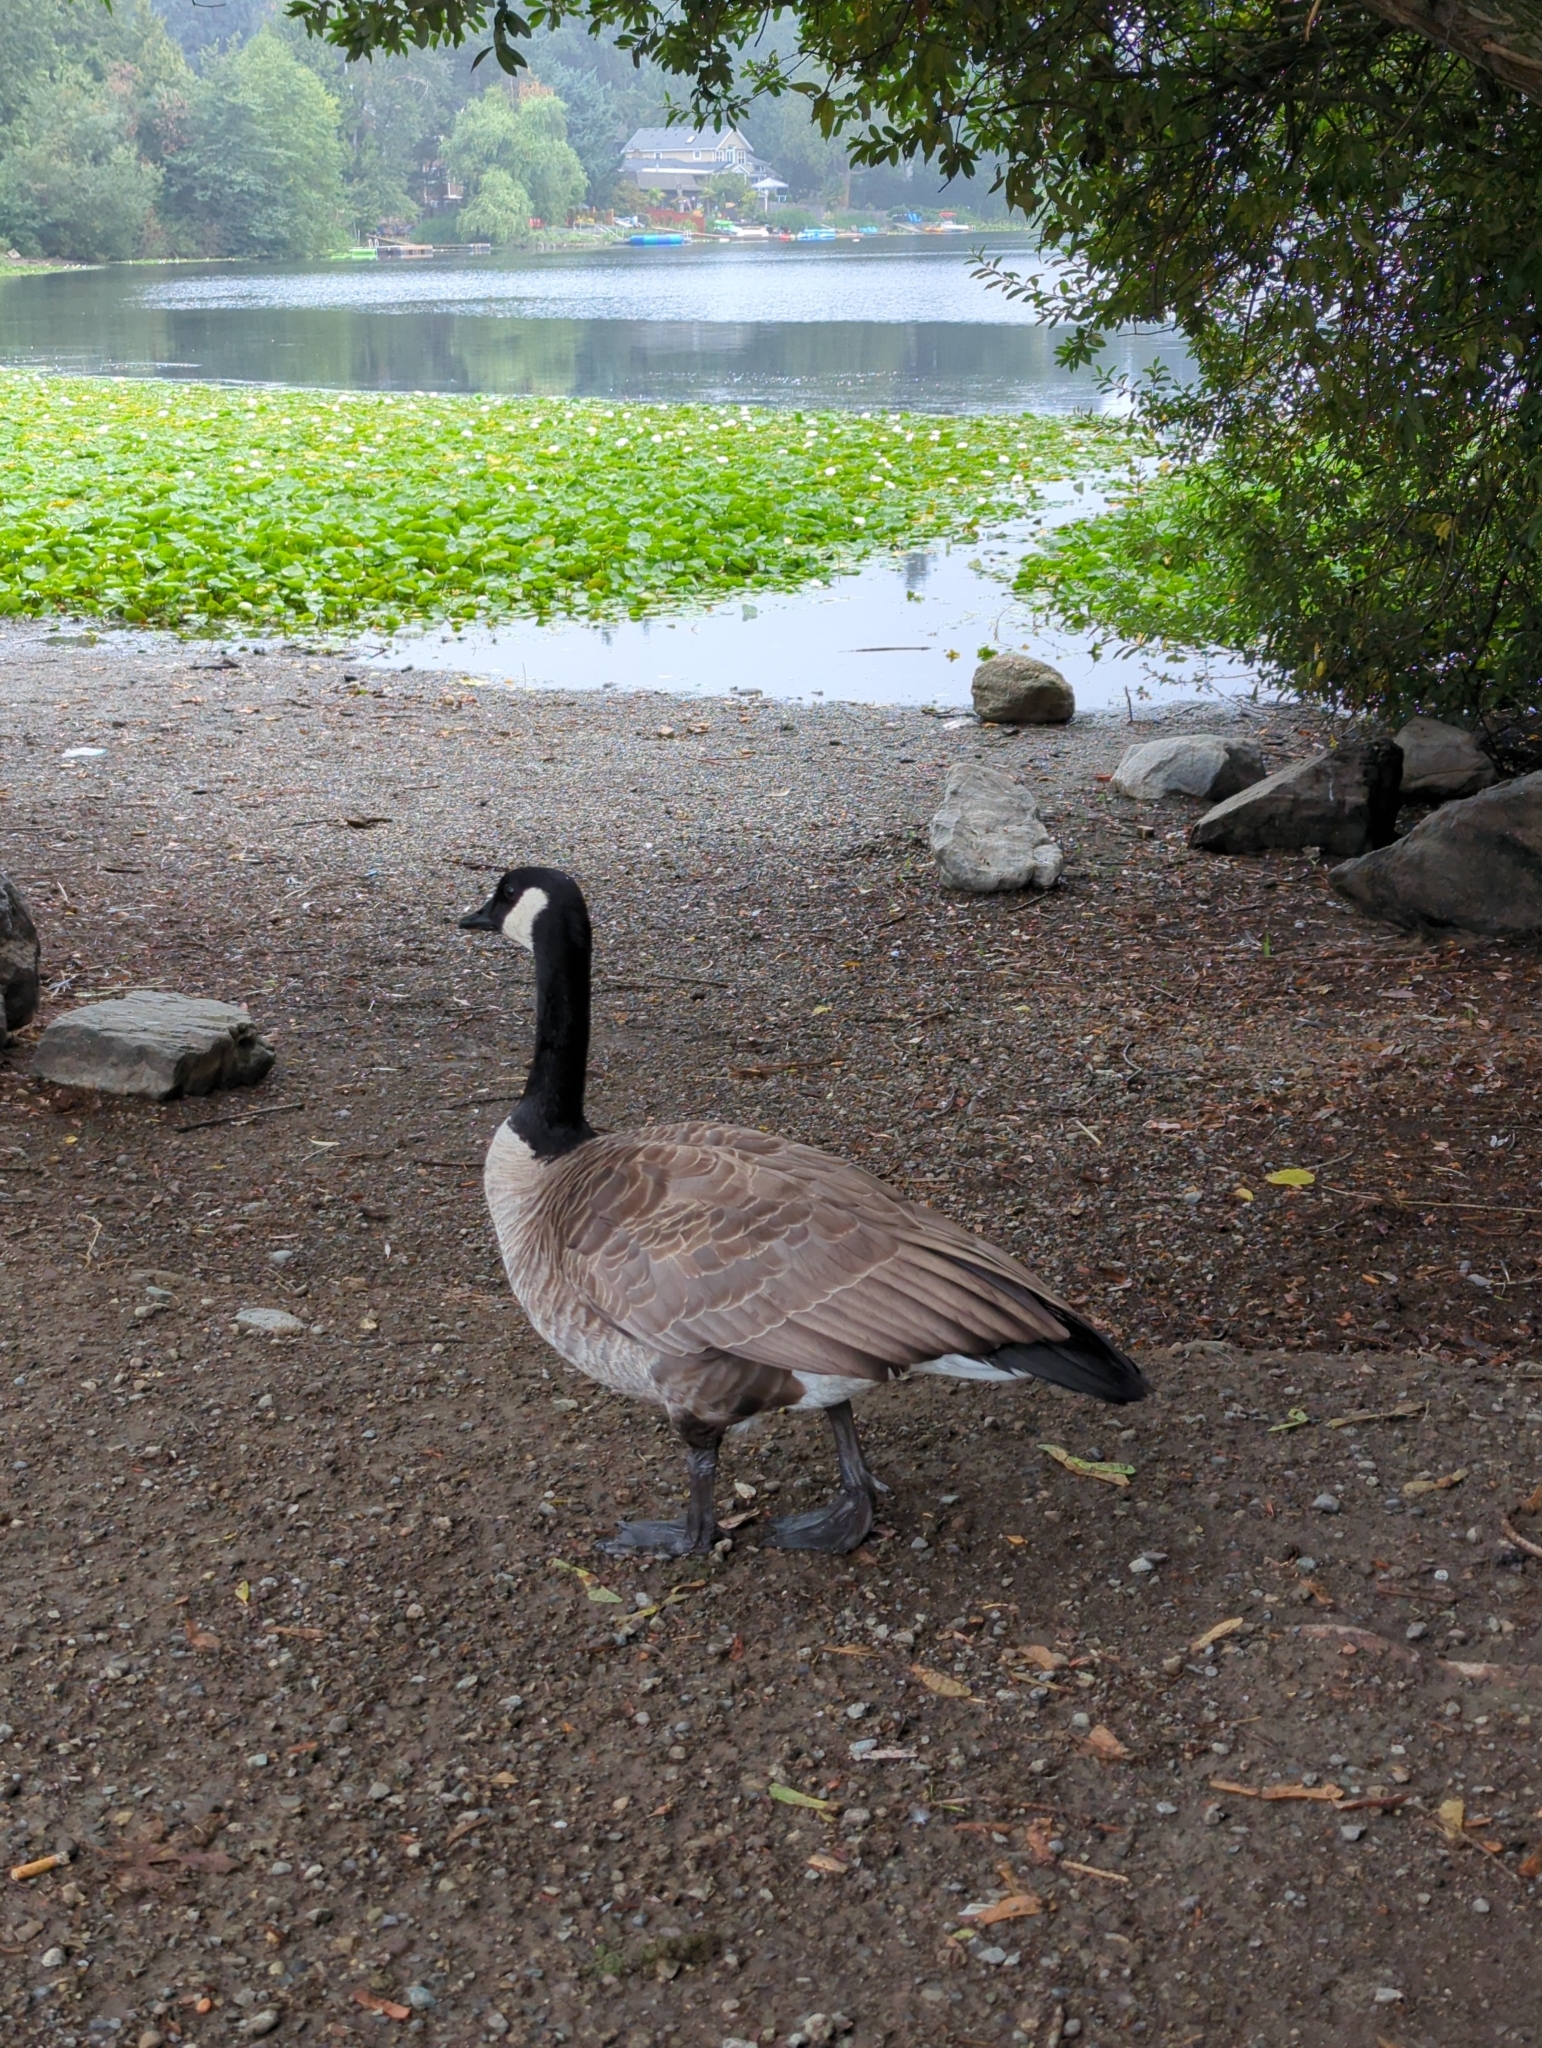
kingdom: Animalia
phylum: Chordata
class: Aves
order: Anseriformes
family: Anatidae
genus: Branta
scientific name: Branta canadensis
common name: Canada goose
